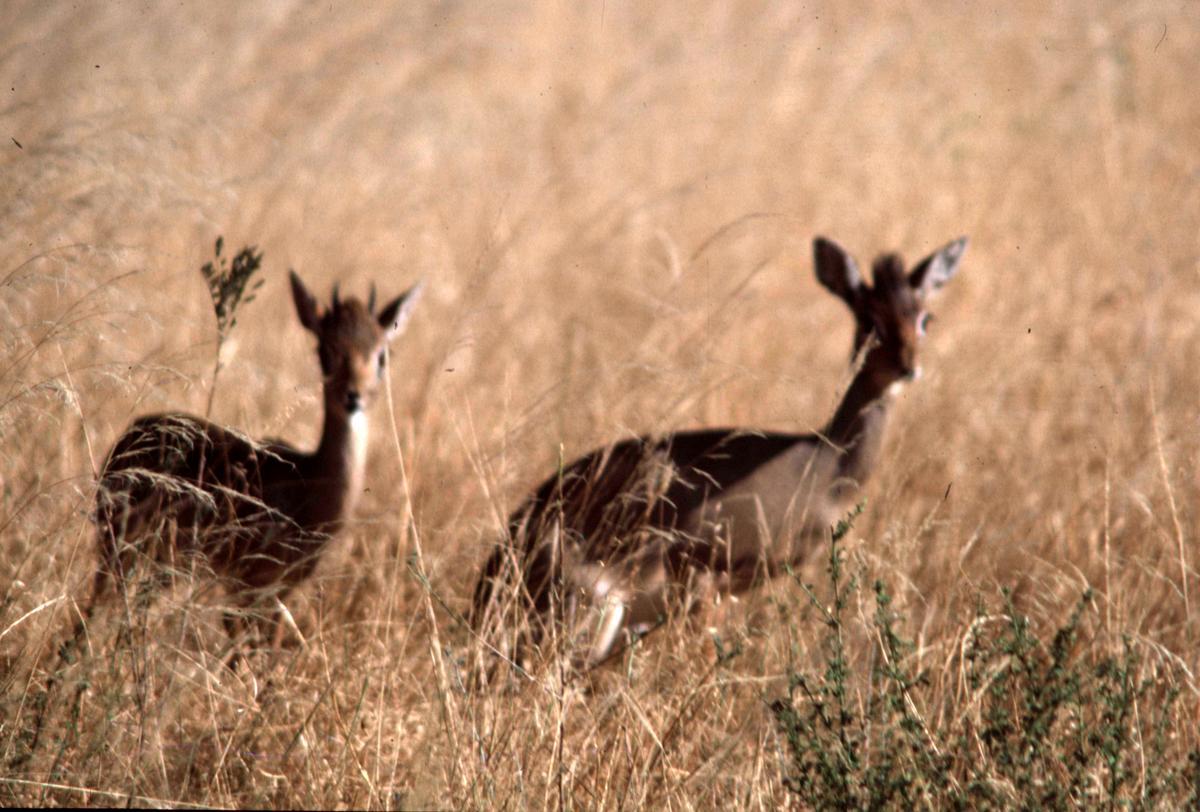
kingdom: Animalia
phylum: Chordata
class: Mammalia
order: Artiodactyla
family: Bovidae
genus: Madoqua
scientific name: Madoqua kirkii
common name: Kirk's dik-dik
